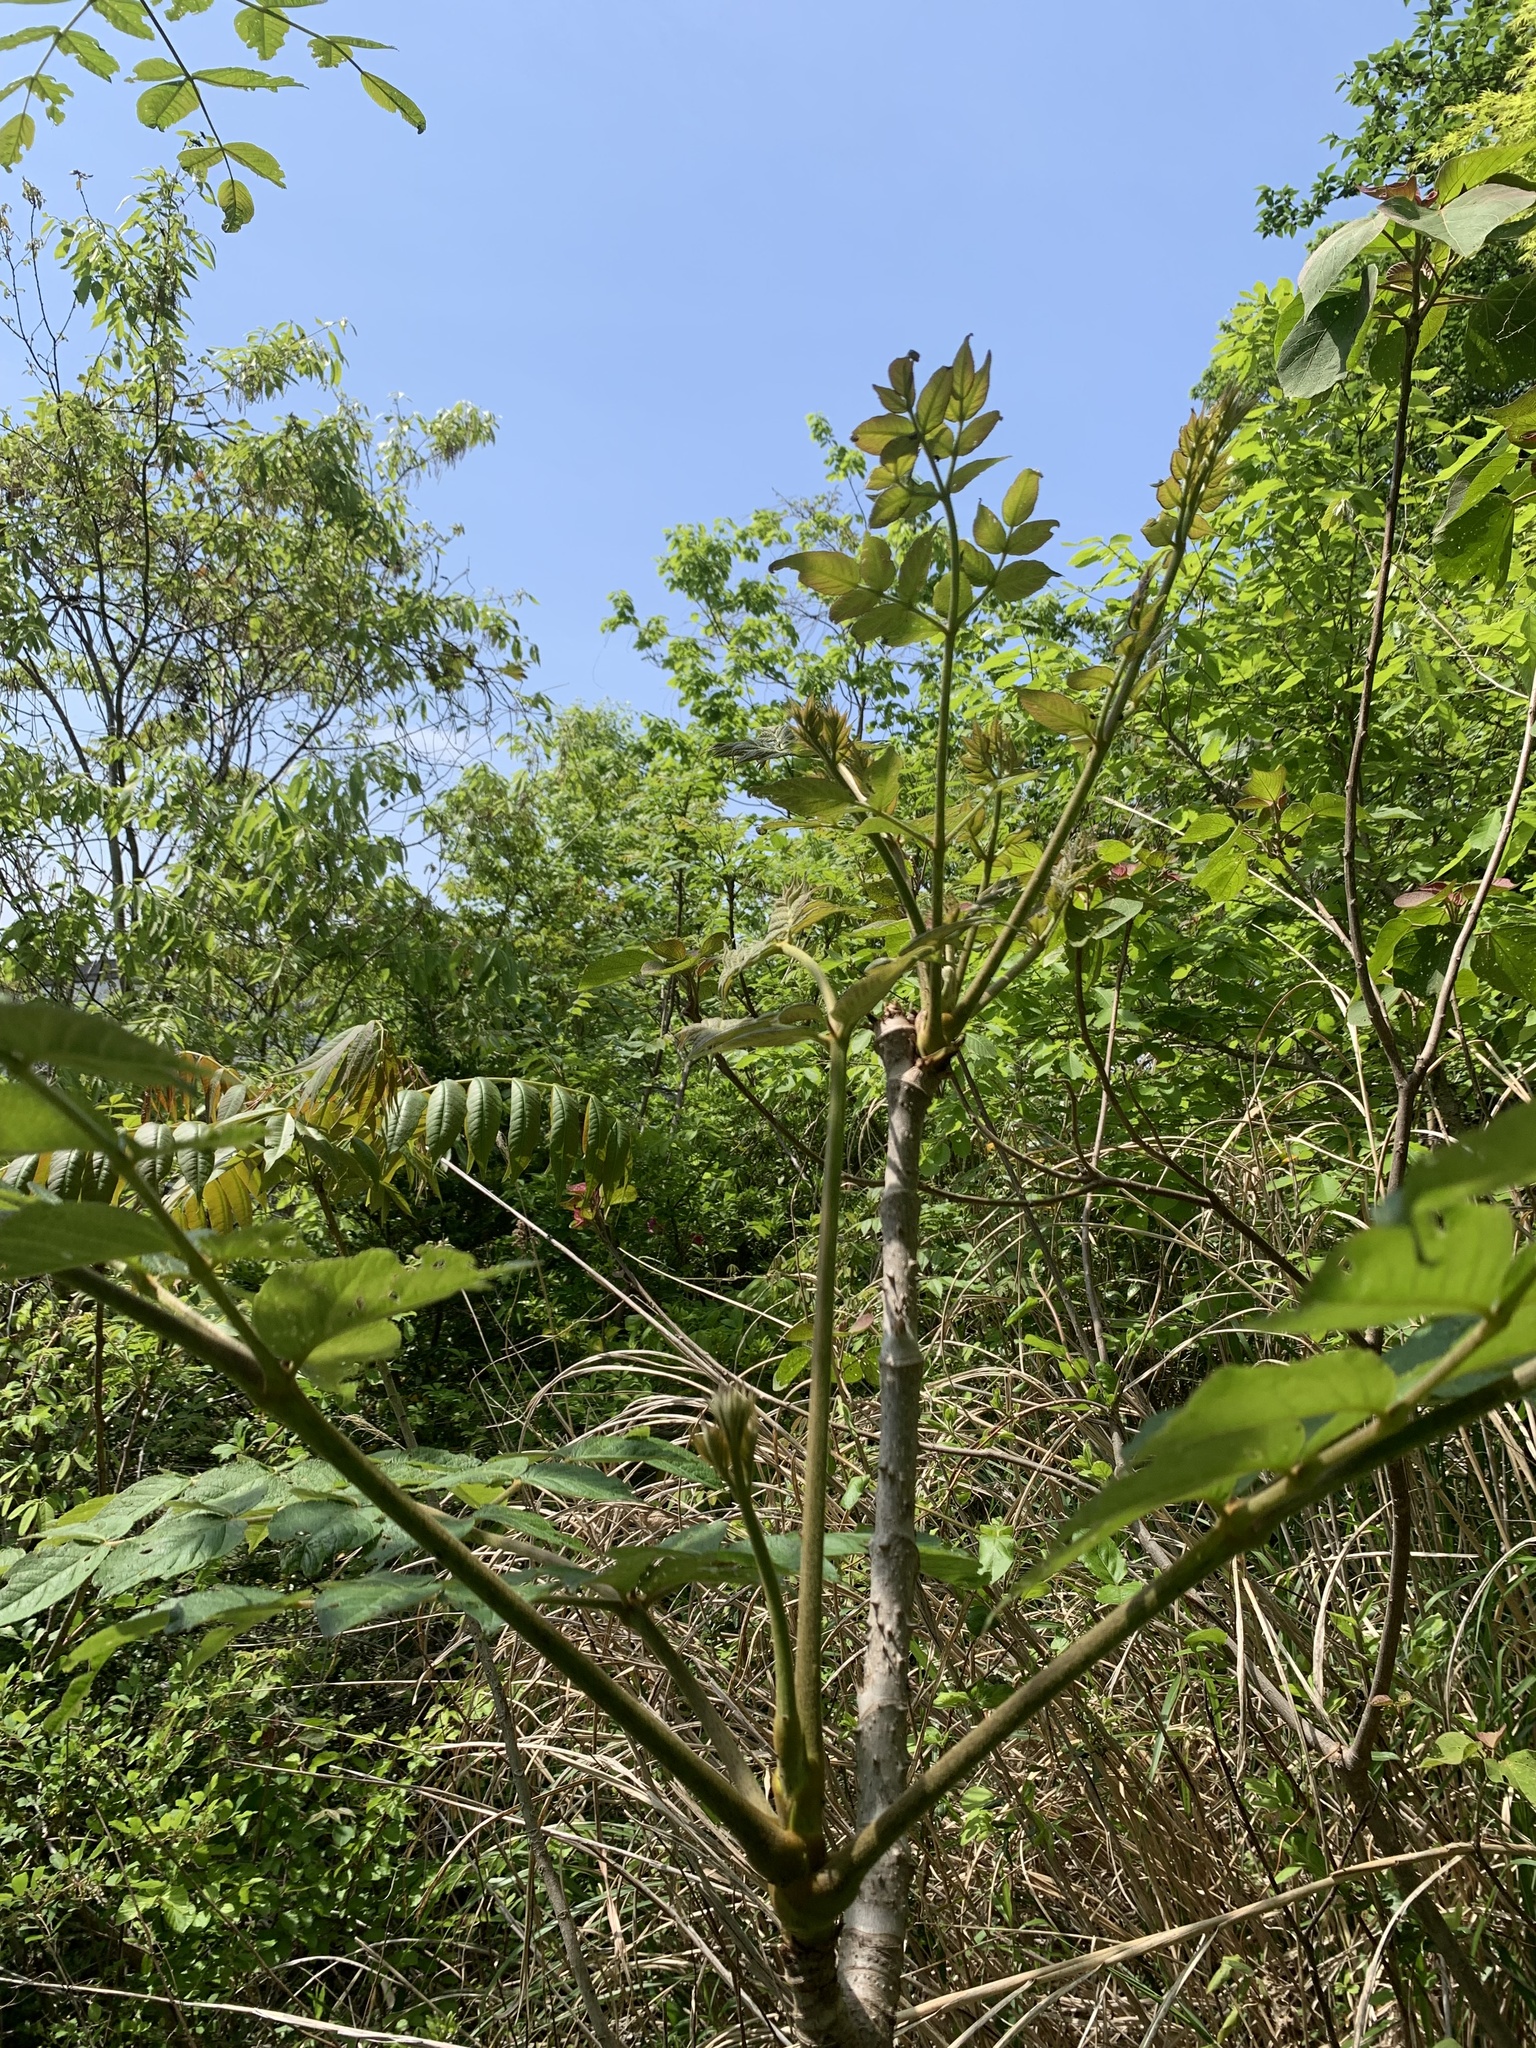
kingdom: Plantae
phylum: Tracheophyta
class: Magnoliopsida
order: Apiales
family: Araliaceae
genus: Aralia
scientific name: Aralia elata
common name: Japanese angelica-tree
